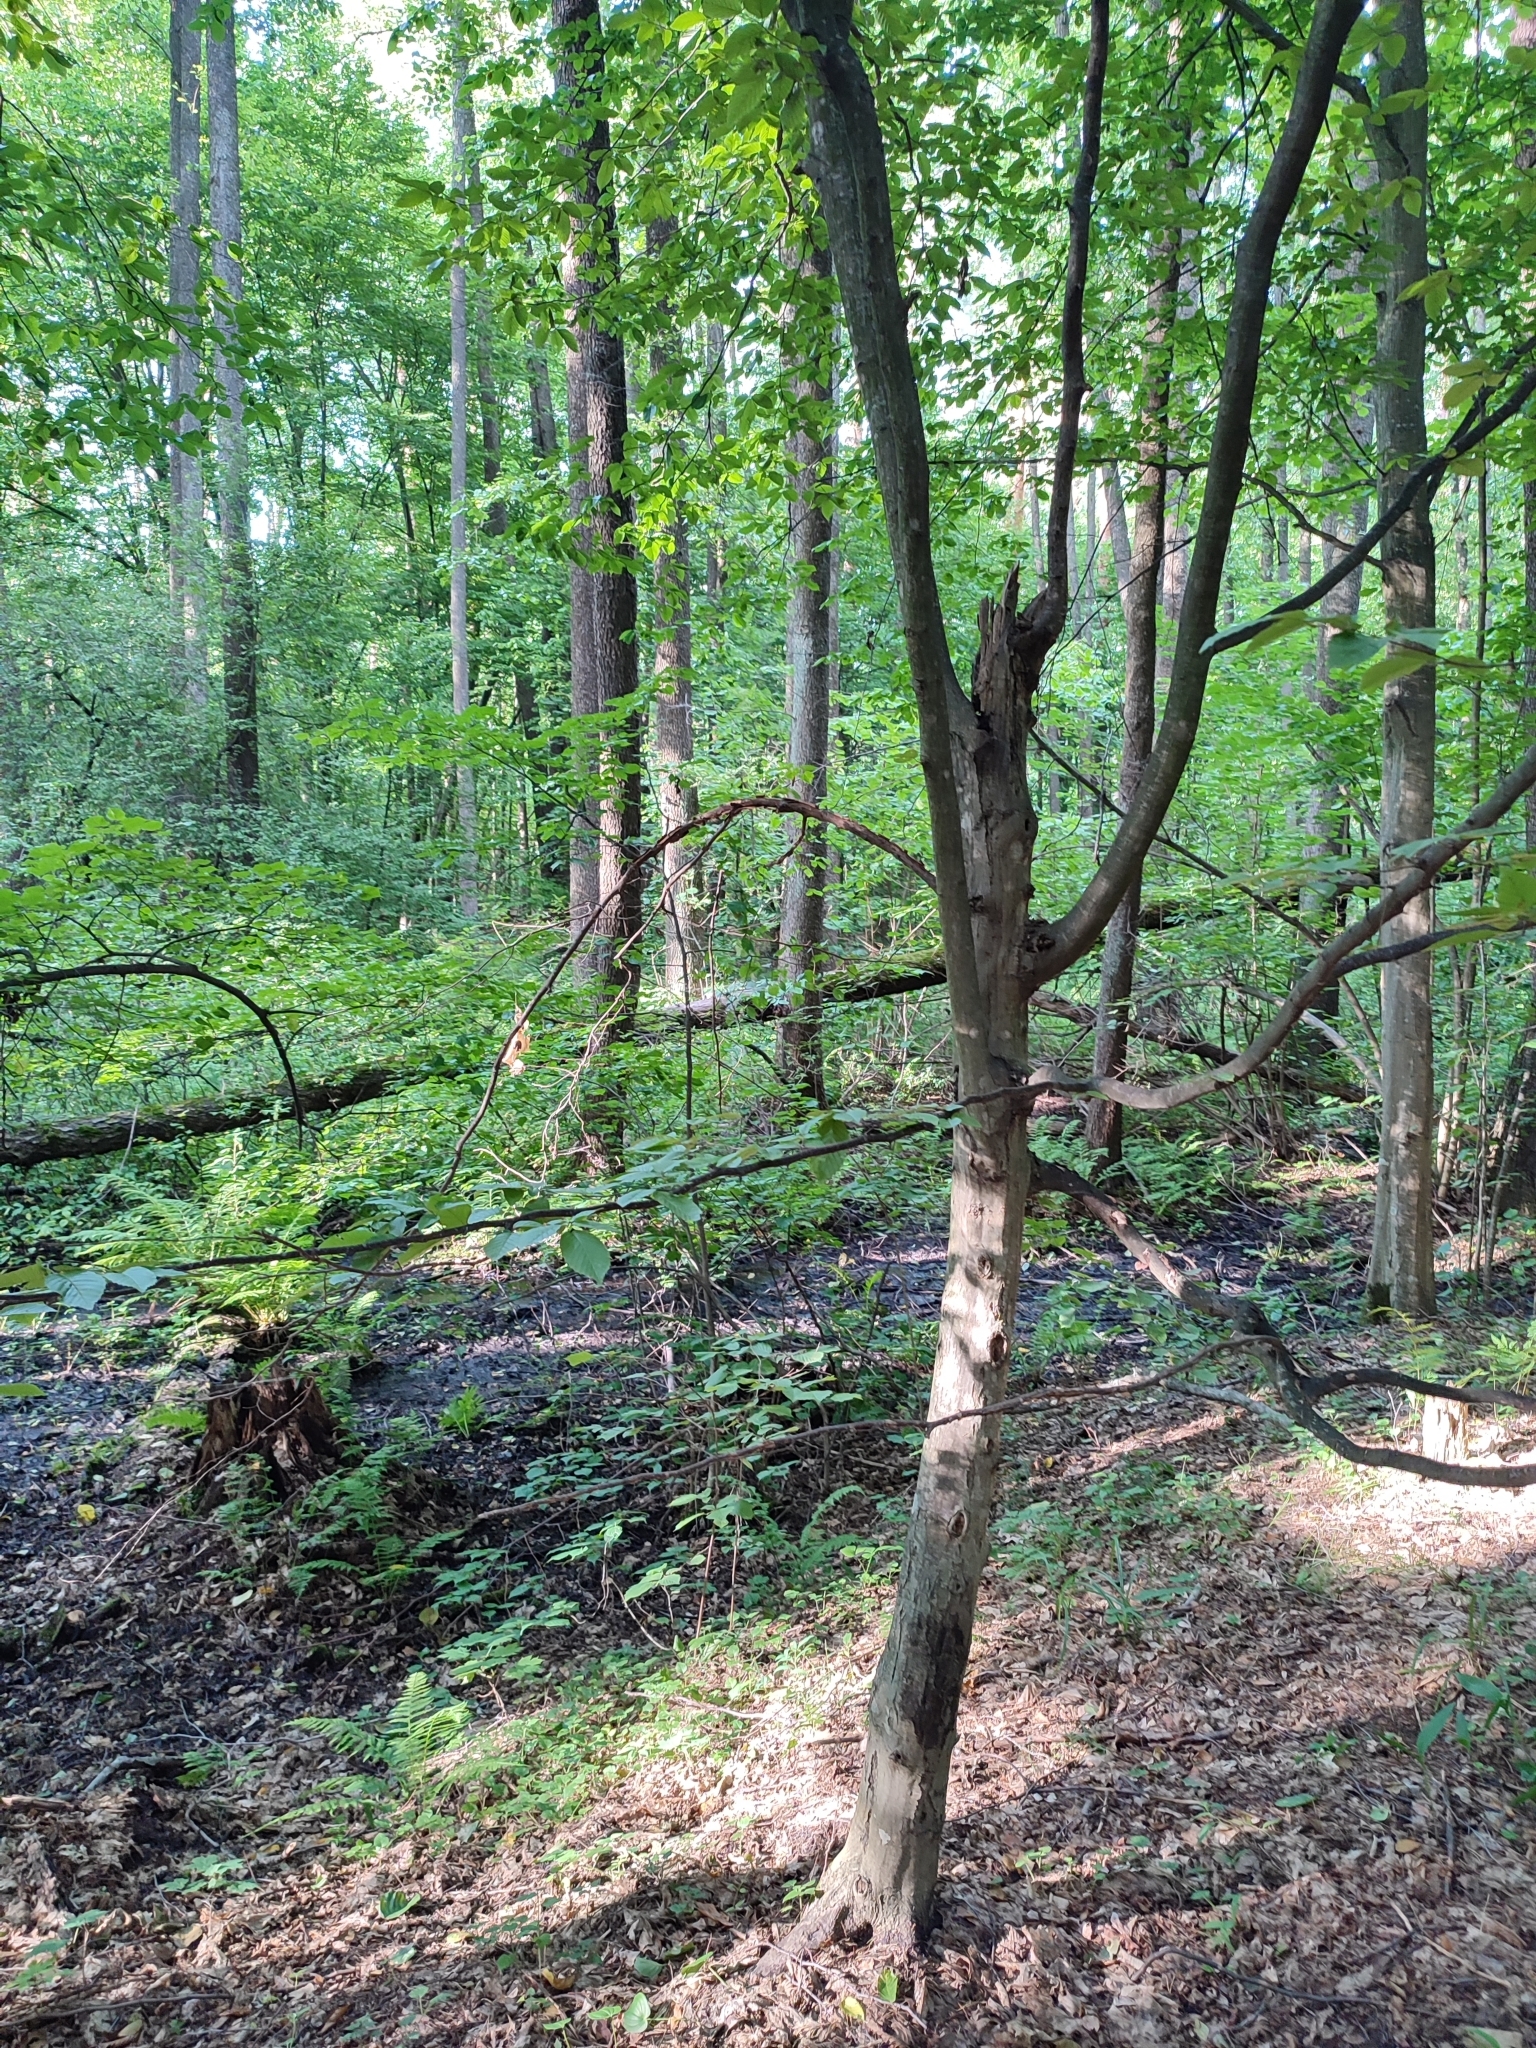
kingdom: Plantae
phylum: Tracheophyta
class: Magnoliopsida
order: Fagales
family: Betulaceae
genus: Carpinus
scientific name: Carpinus betulus
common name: Hornbeam
